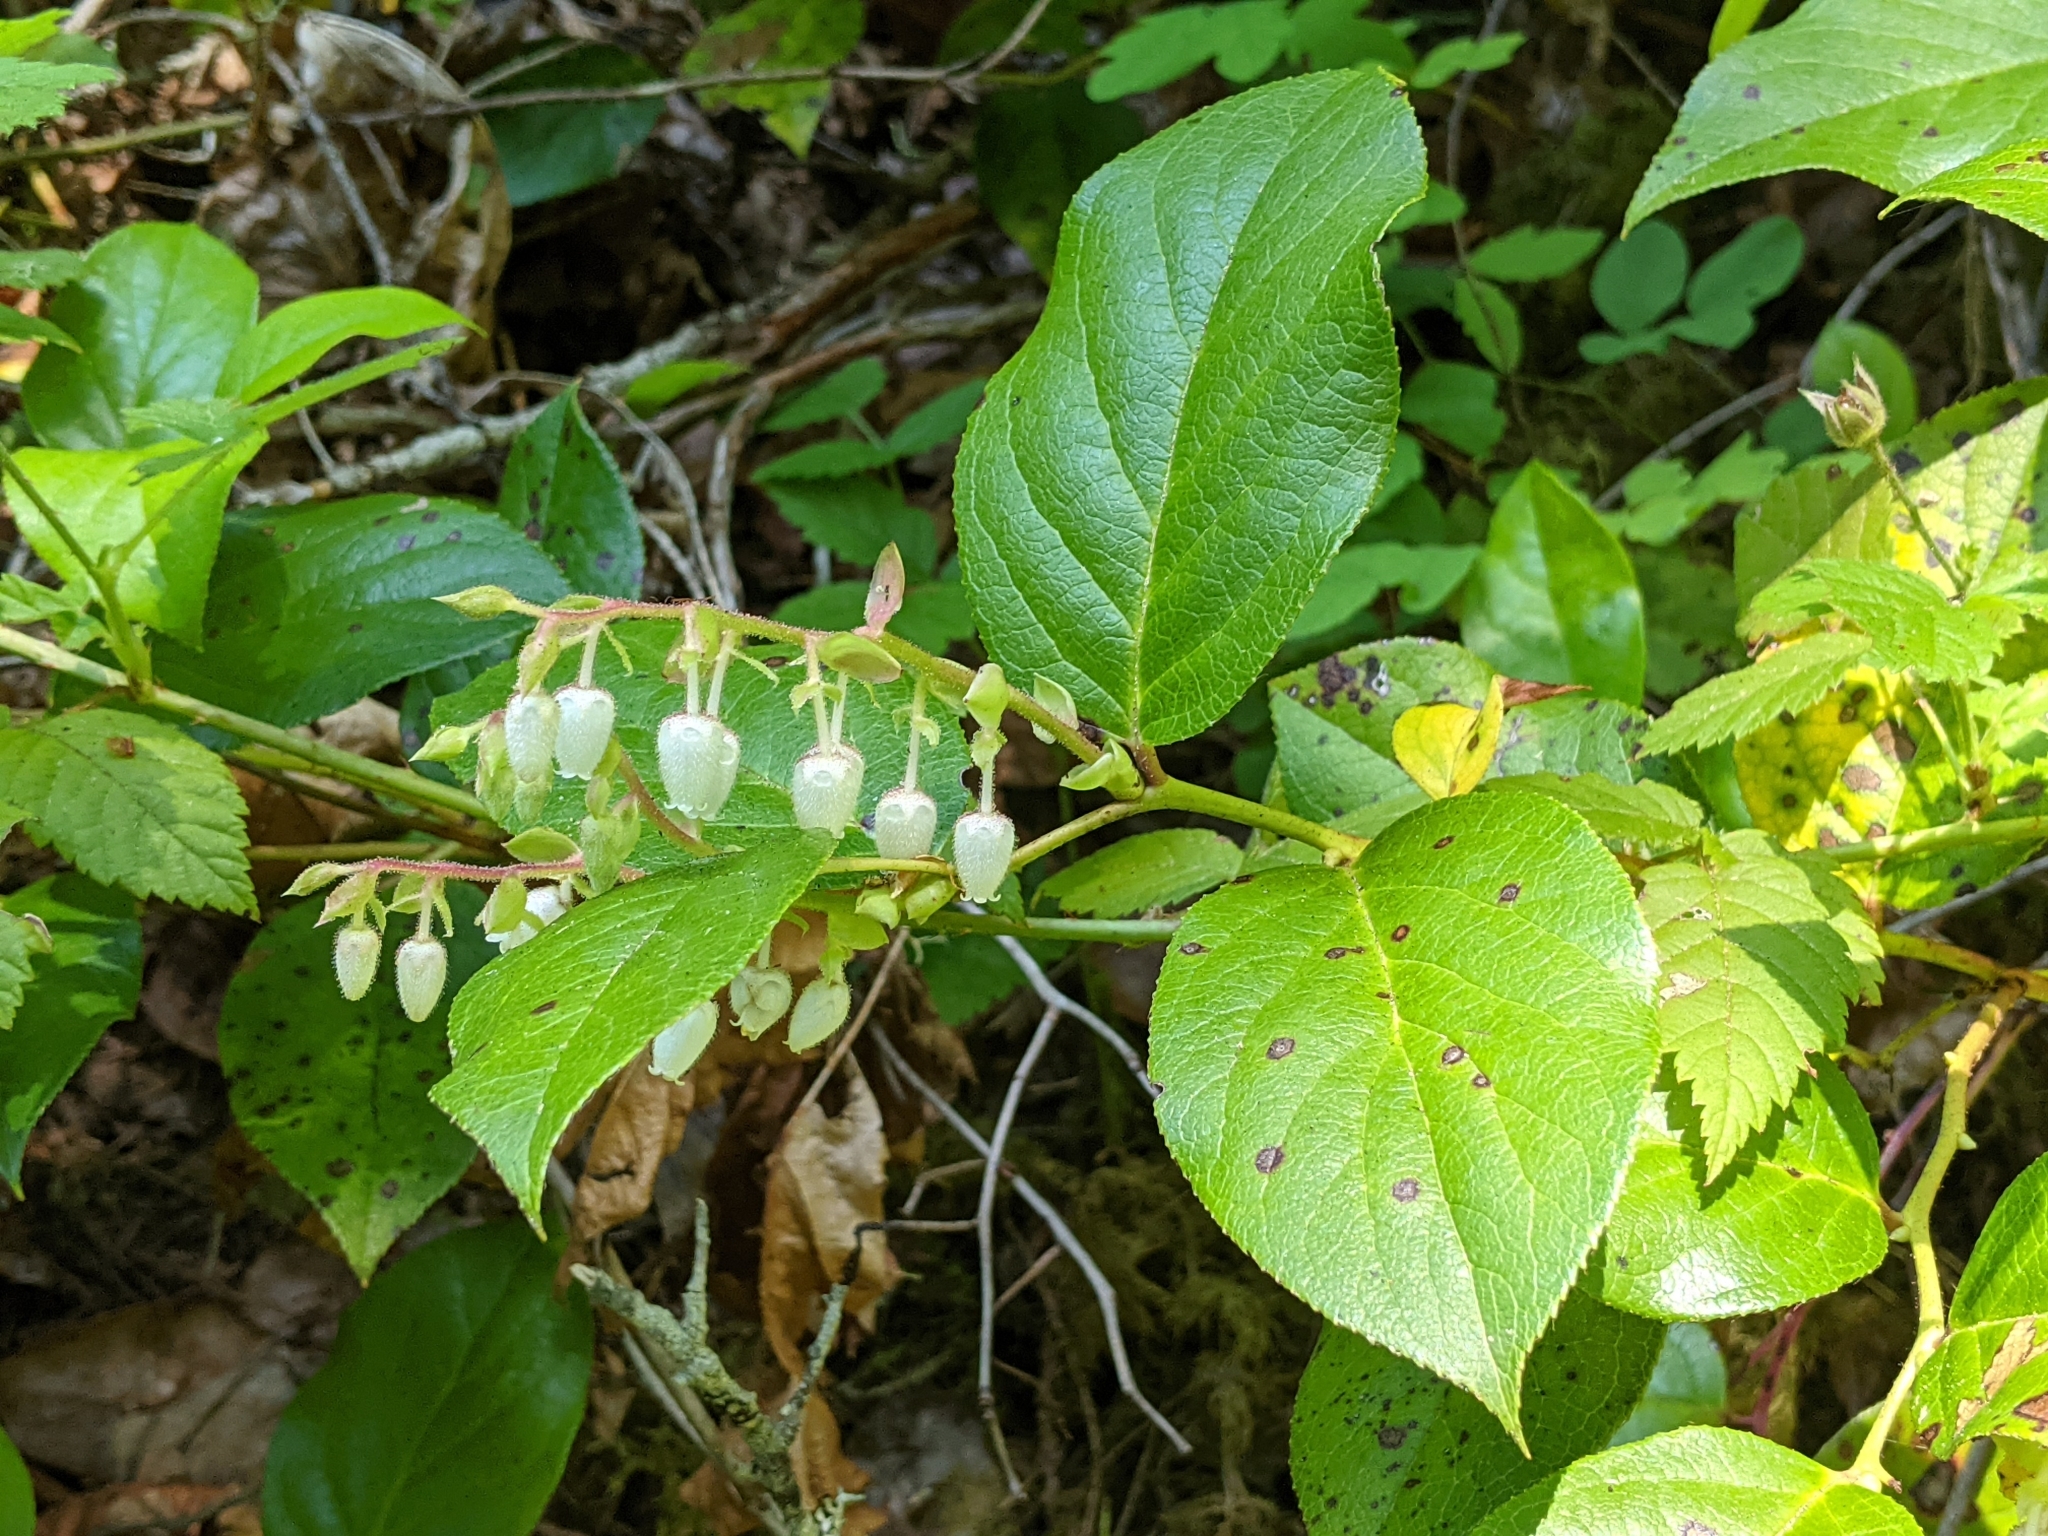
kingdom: Plantae
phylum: Tracheophyta
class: Magnoliopsida
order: Ericales
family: Ericaceae
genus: Gaultheria
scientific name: Gaultheria shallon
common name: Shallon
